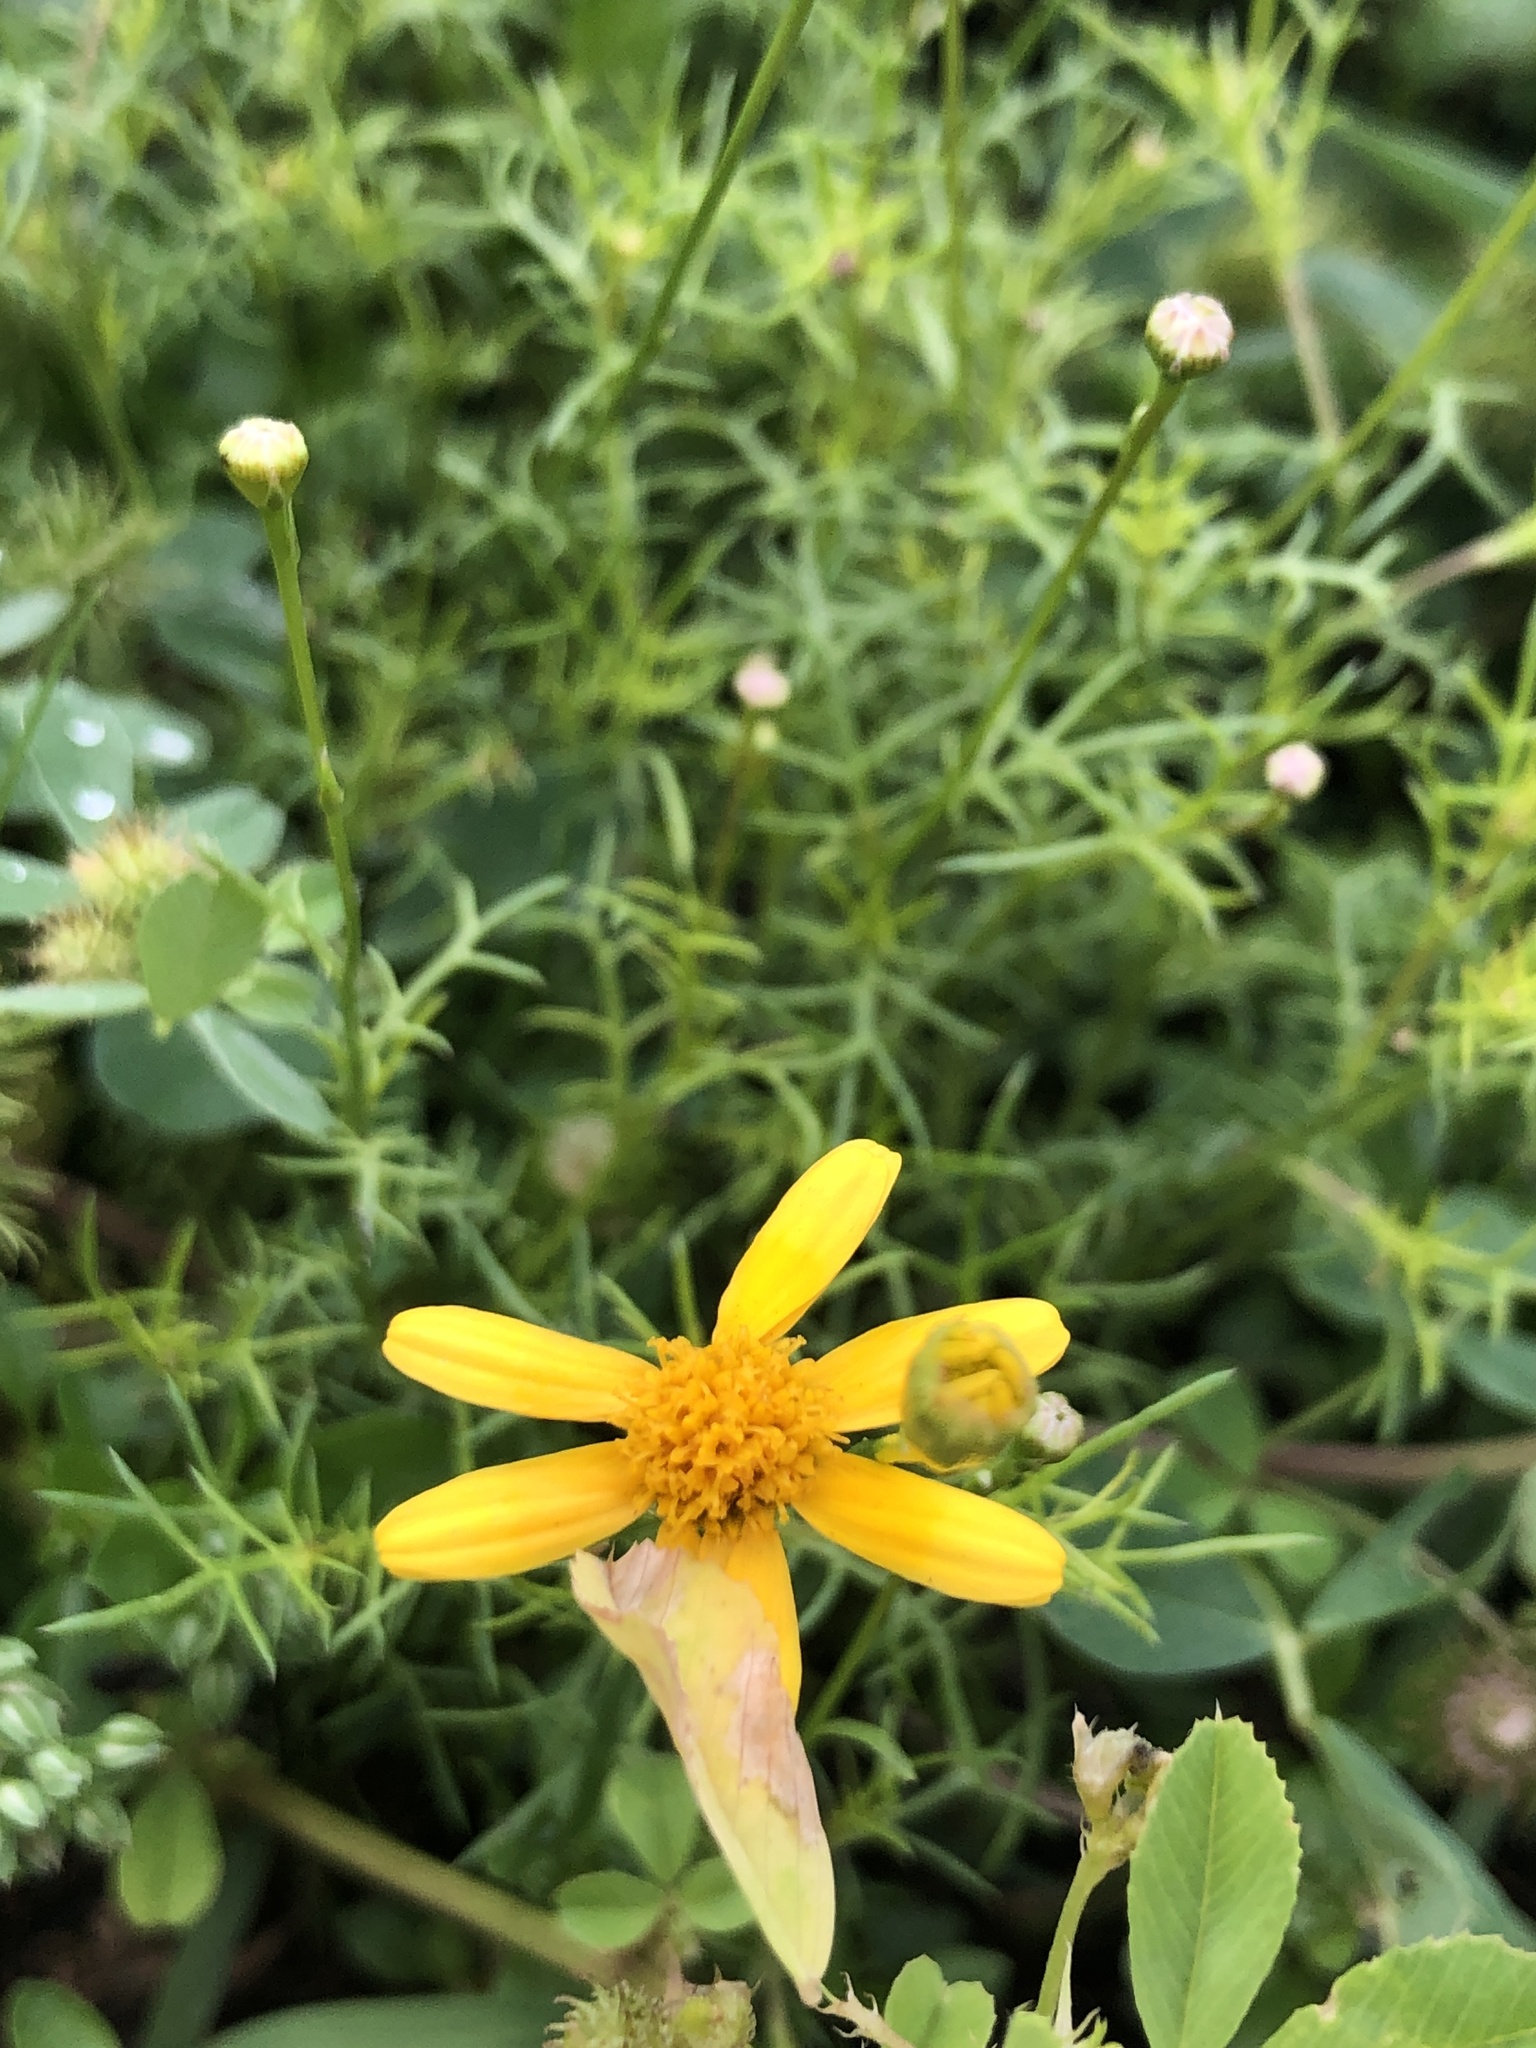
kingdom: Plantae
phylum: Tracheophyta
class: Magnoliopsida
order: Asterales
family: Asteraceae
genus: Thymophylla
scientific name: Thymophylla tenuiloba
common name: Dahlberg's daisy
